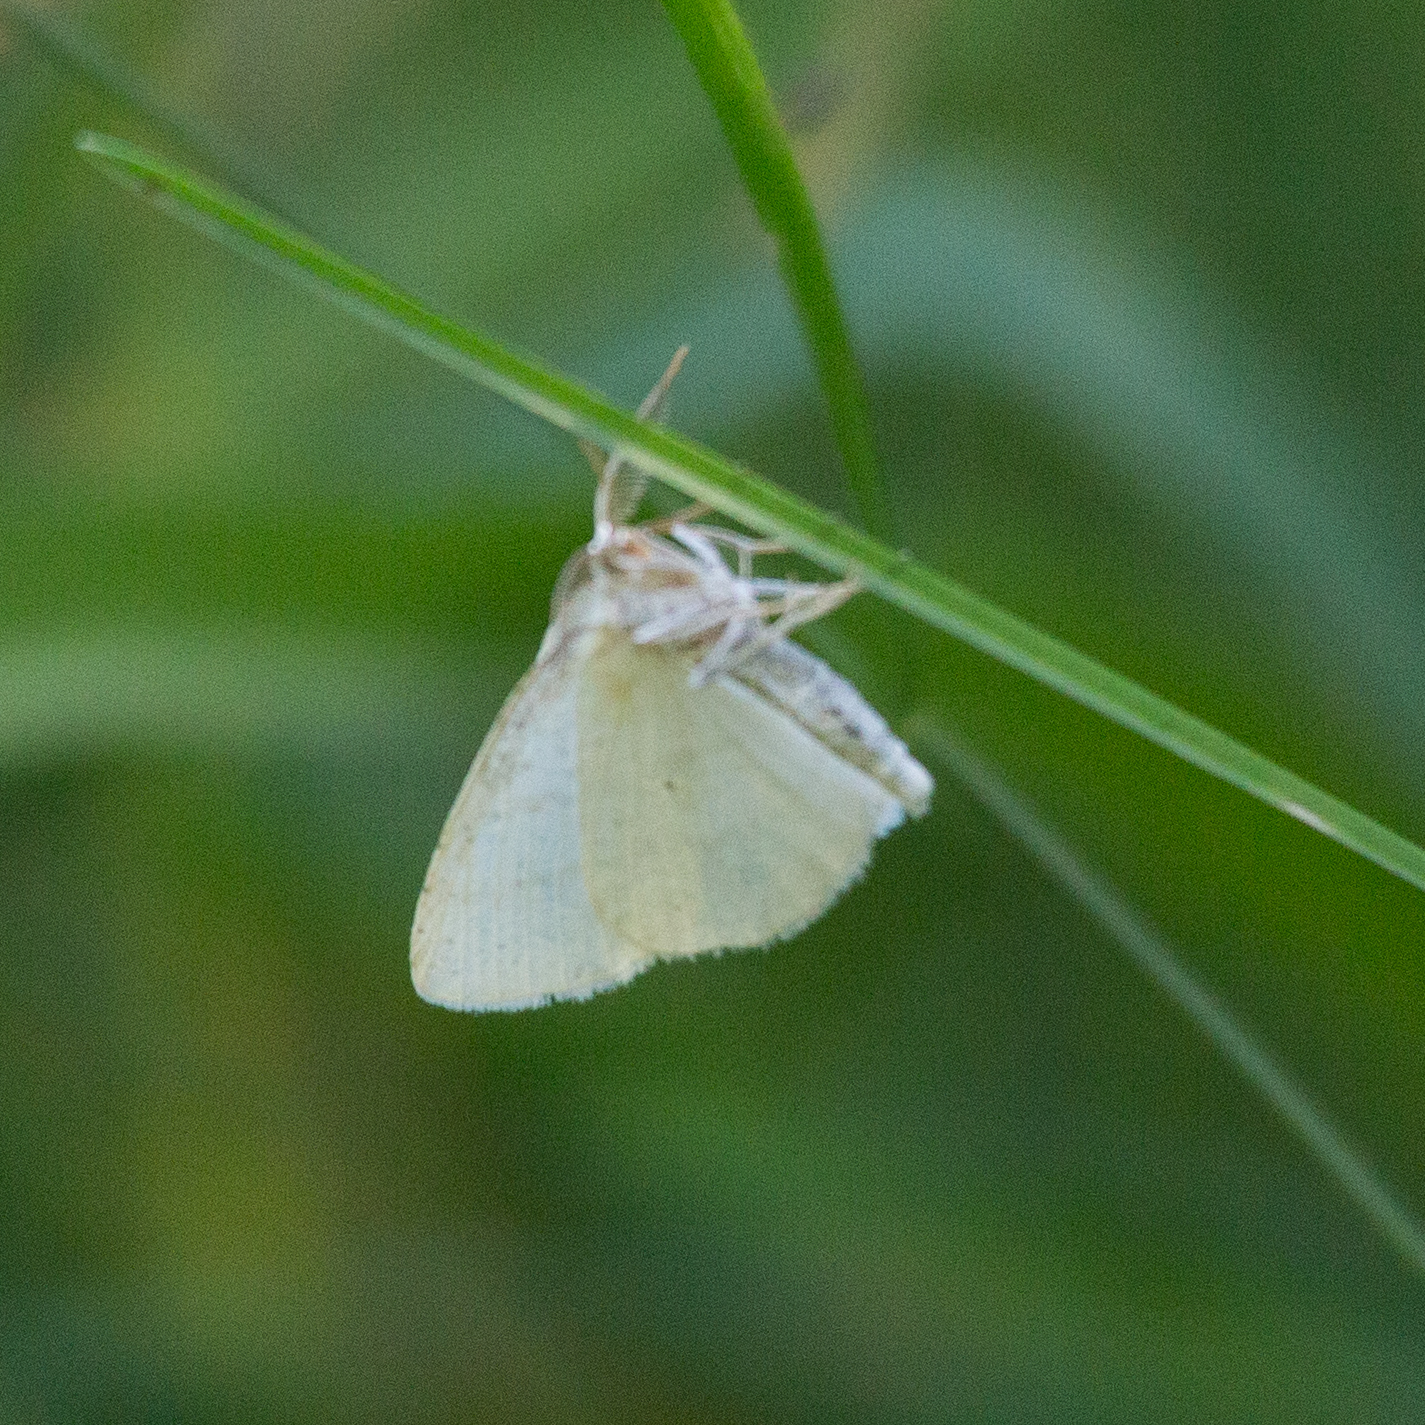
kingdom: Animalia
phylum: Arthropoda
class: Insecta
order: Lepidoptera
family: Geometridae
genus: Cabera
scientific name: Cabera pusaria
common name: Common white wave
